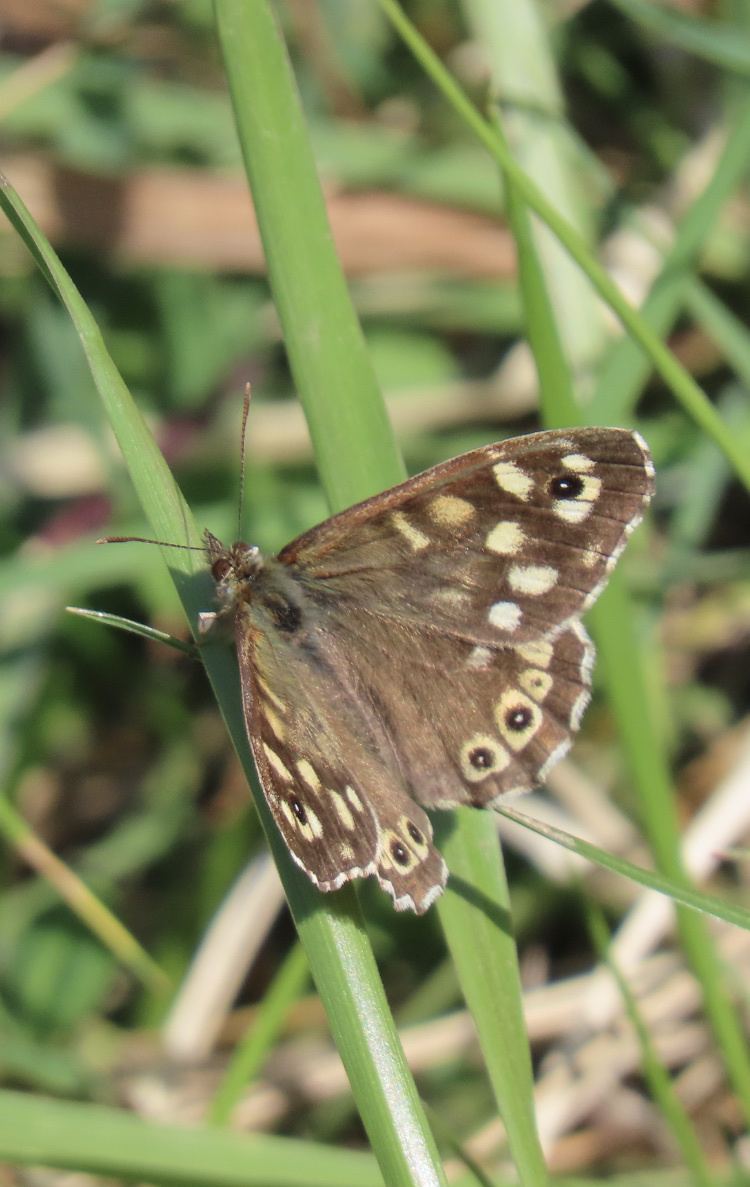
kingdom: Animalia
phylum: Arthropoda
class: Insecta
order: Lepidoptera
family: Nymphalidae
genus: Pararge
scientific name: Pararge aegeria
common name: Speckled wood
